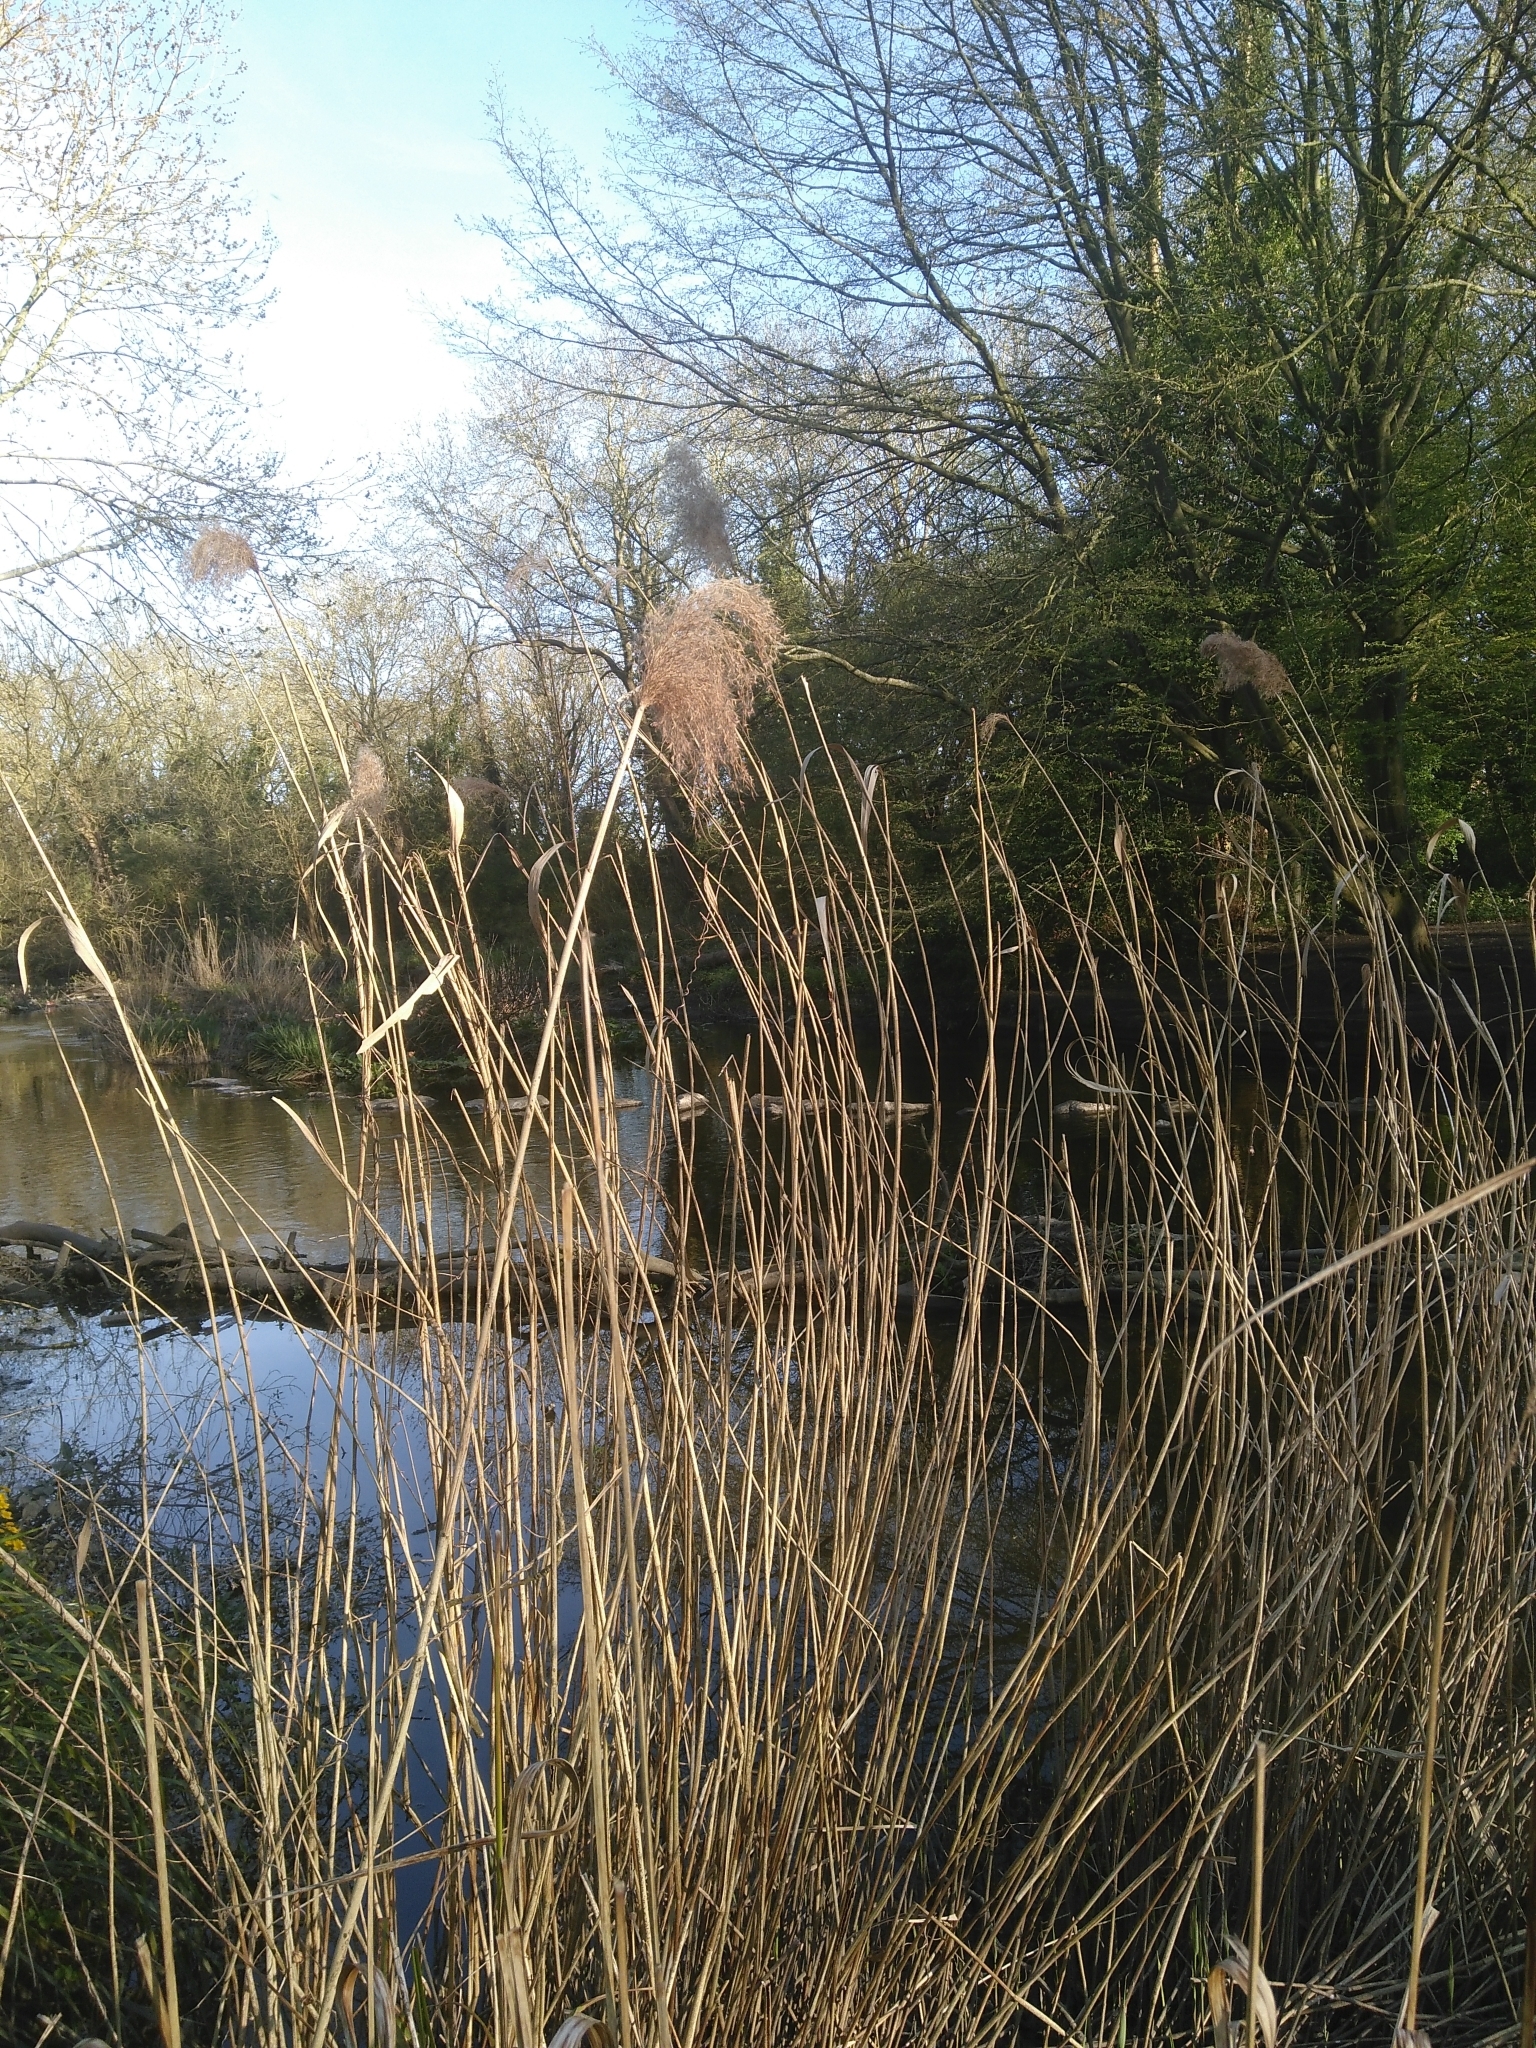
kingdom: Plantae
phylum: Tracheophyta
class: Liliopsida
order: Poales
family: Poaceae
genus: Phragmites
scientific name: Phragmites australis
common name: Common reed
